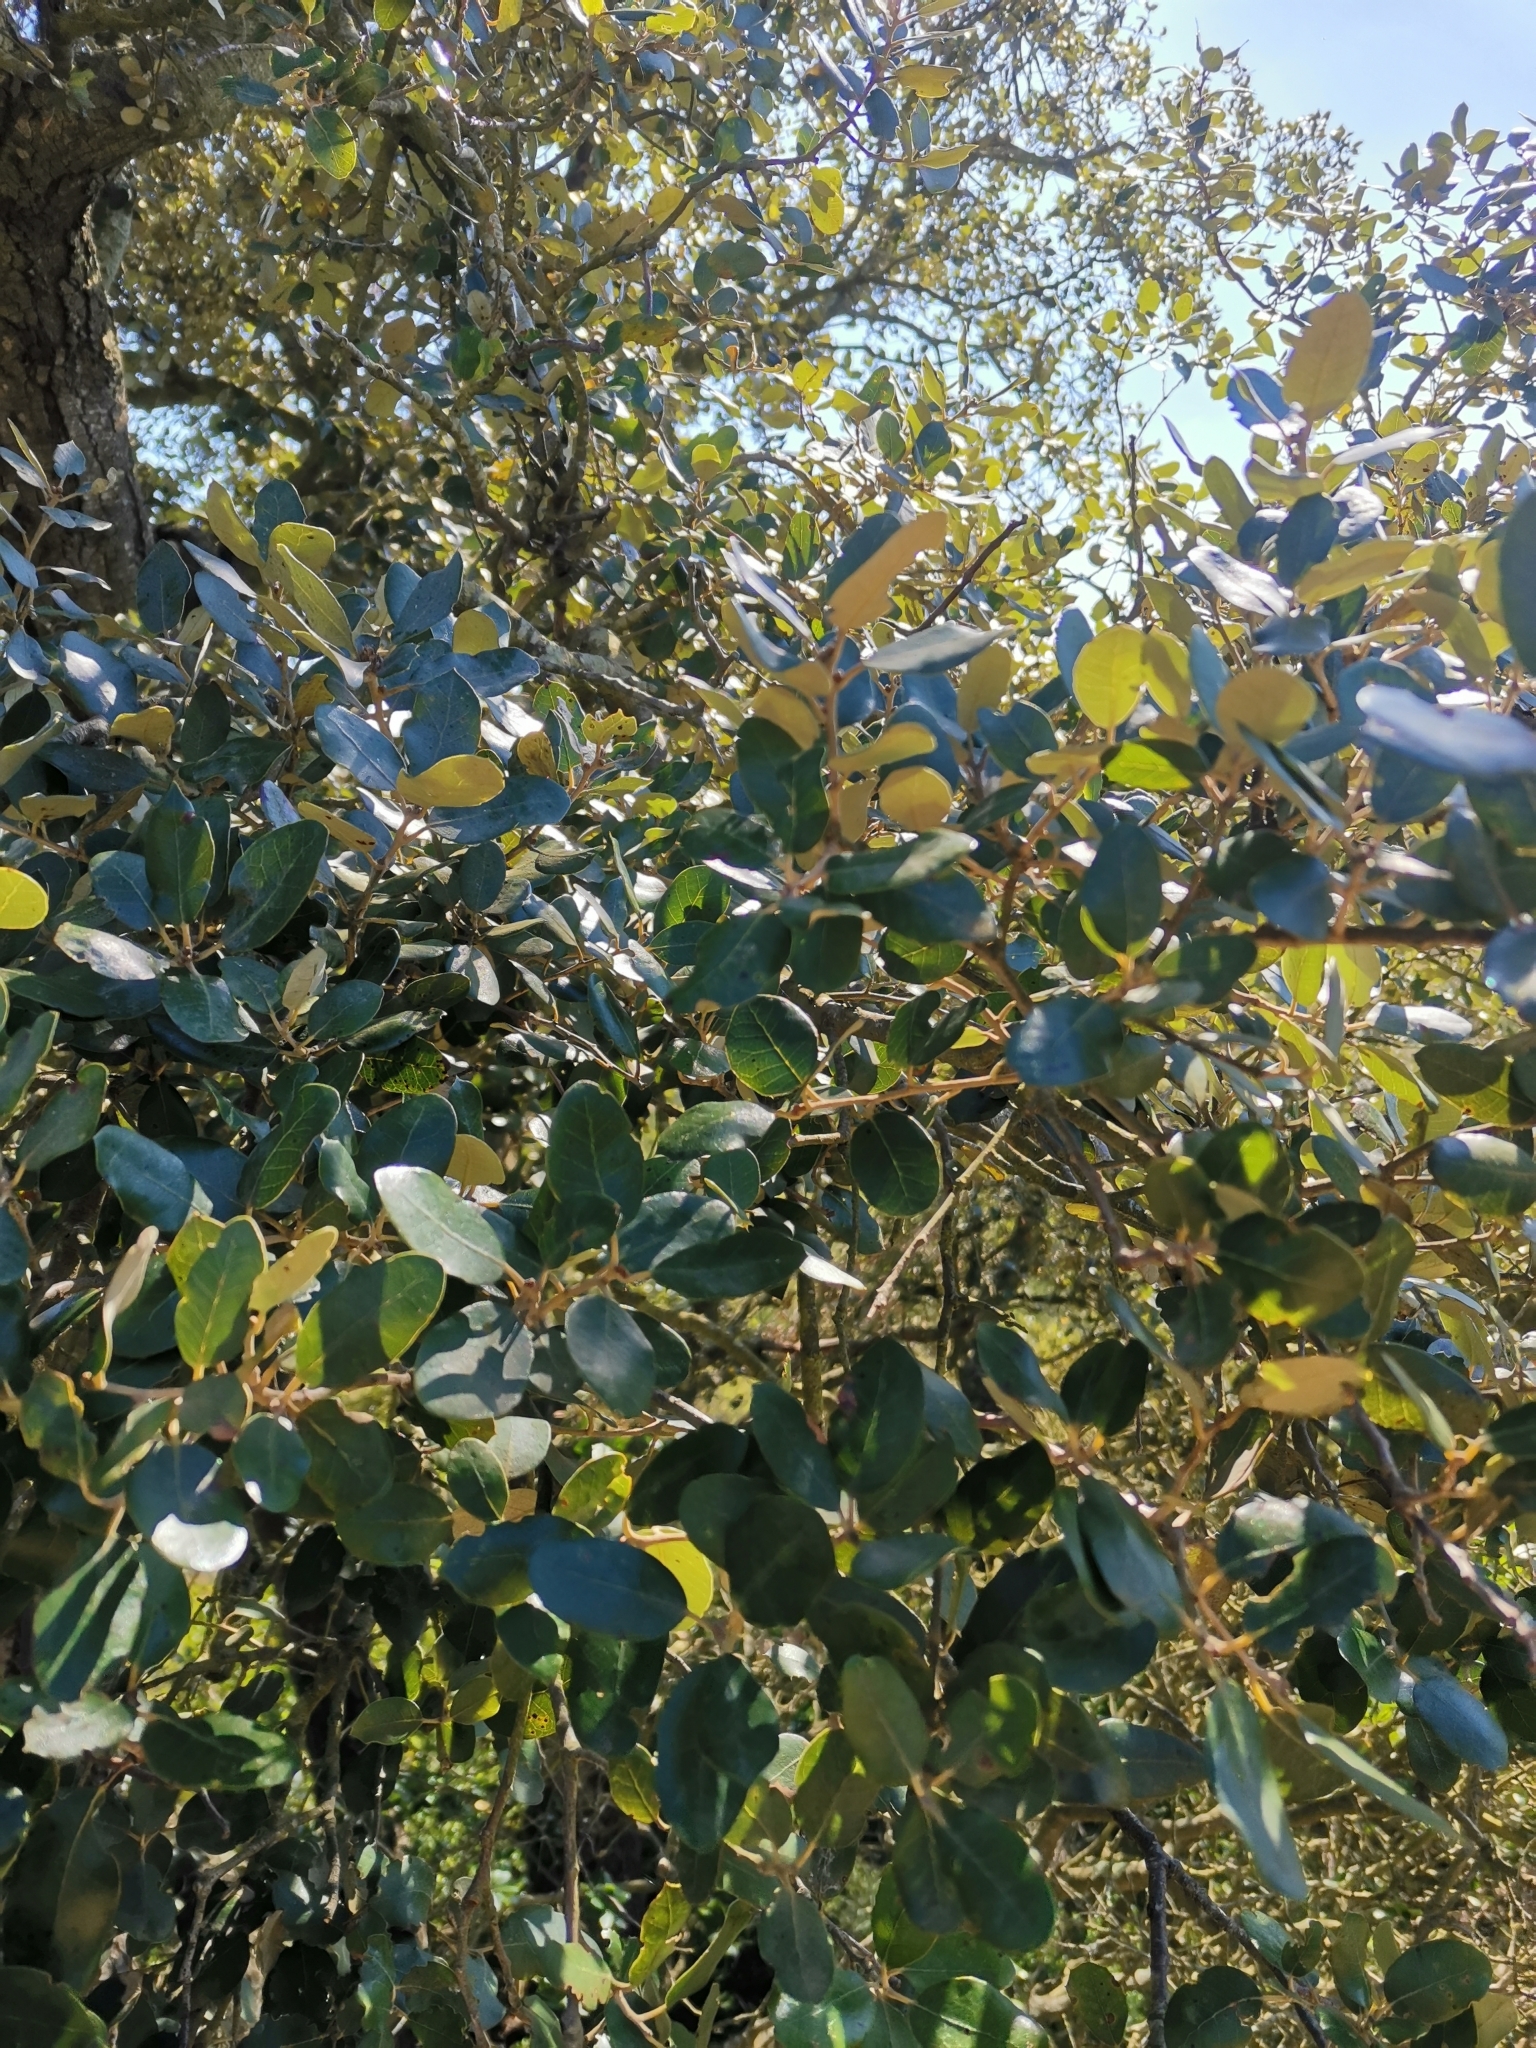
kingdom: Plantae
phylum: Tracheophyta
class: Magnoliopsida
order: Fagales
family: Fagaceae
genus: Quercus
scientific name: Quercus ilex
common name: Evergreen oak
